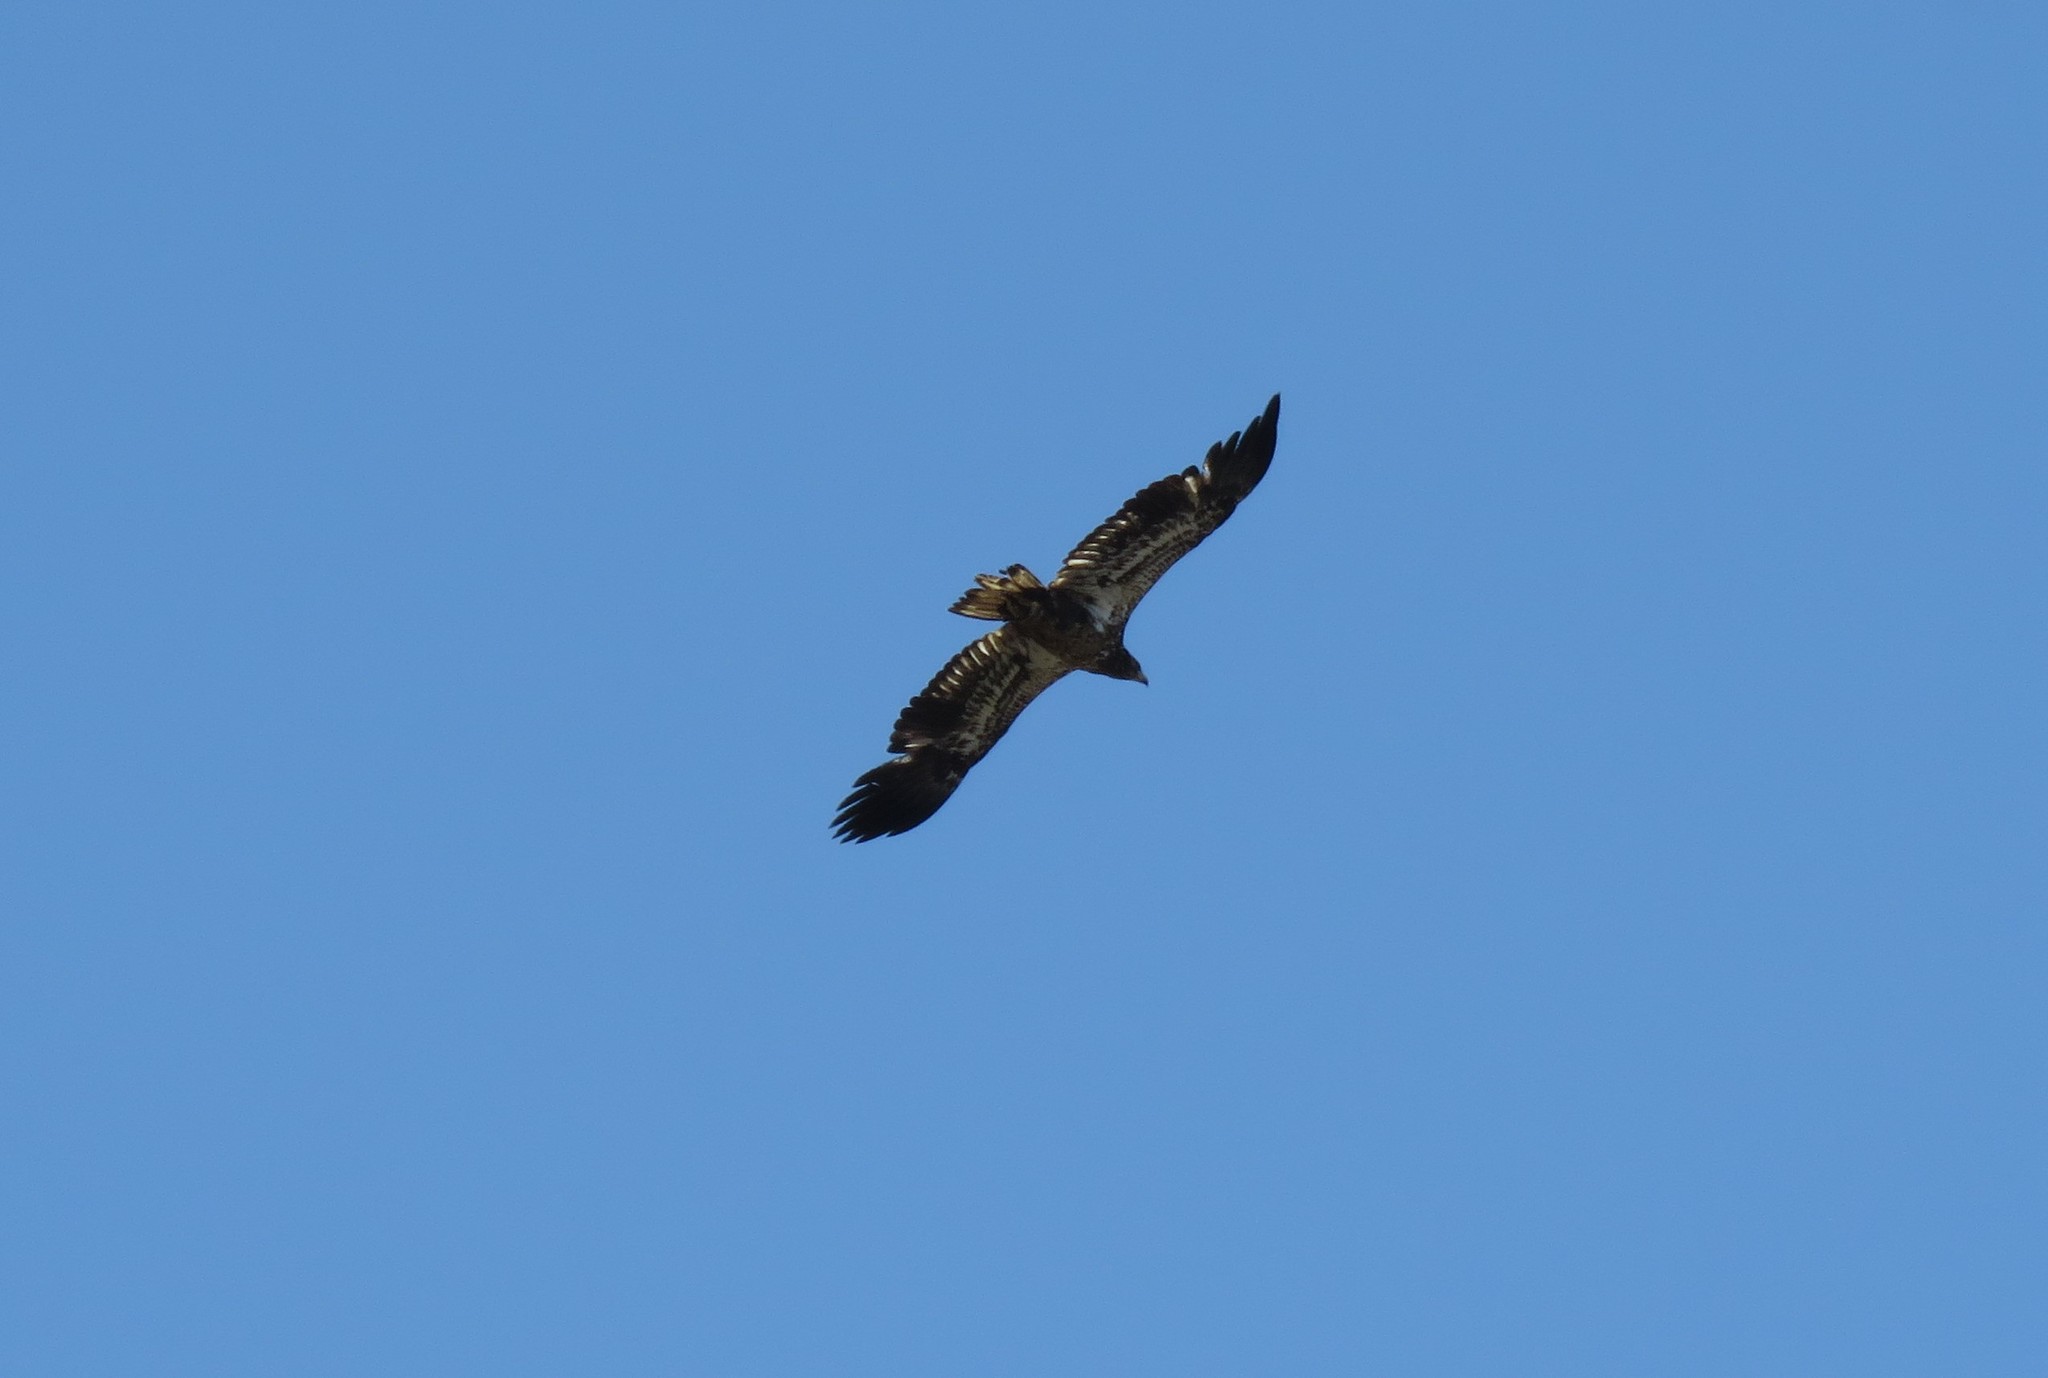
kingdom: Animalia
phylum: Chordata
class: Aves
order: Accipitriformes
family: Accipitridae
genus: Haliaeetus
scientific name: Haliaeetus leucocephalus
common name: Bald eagle
